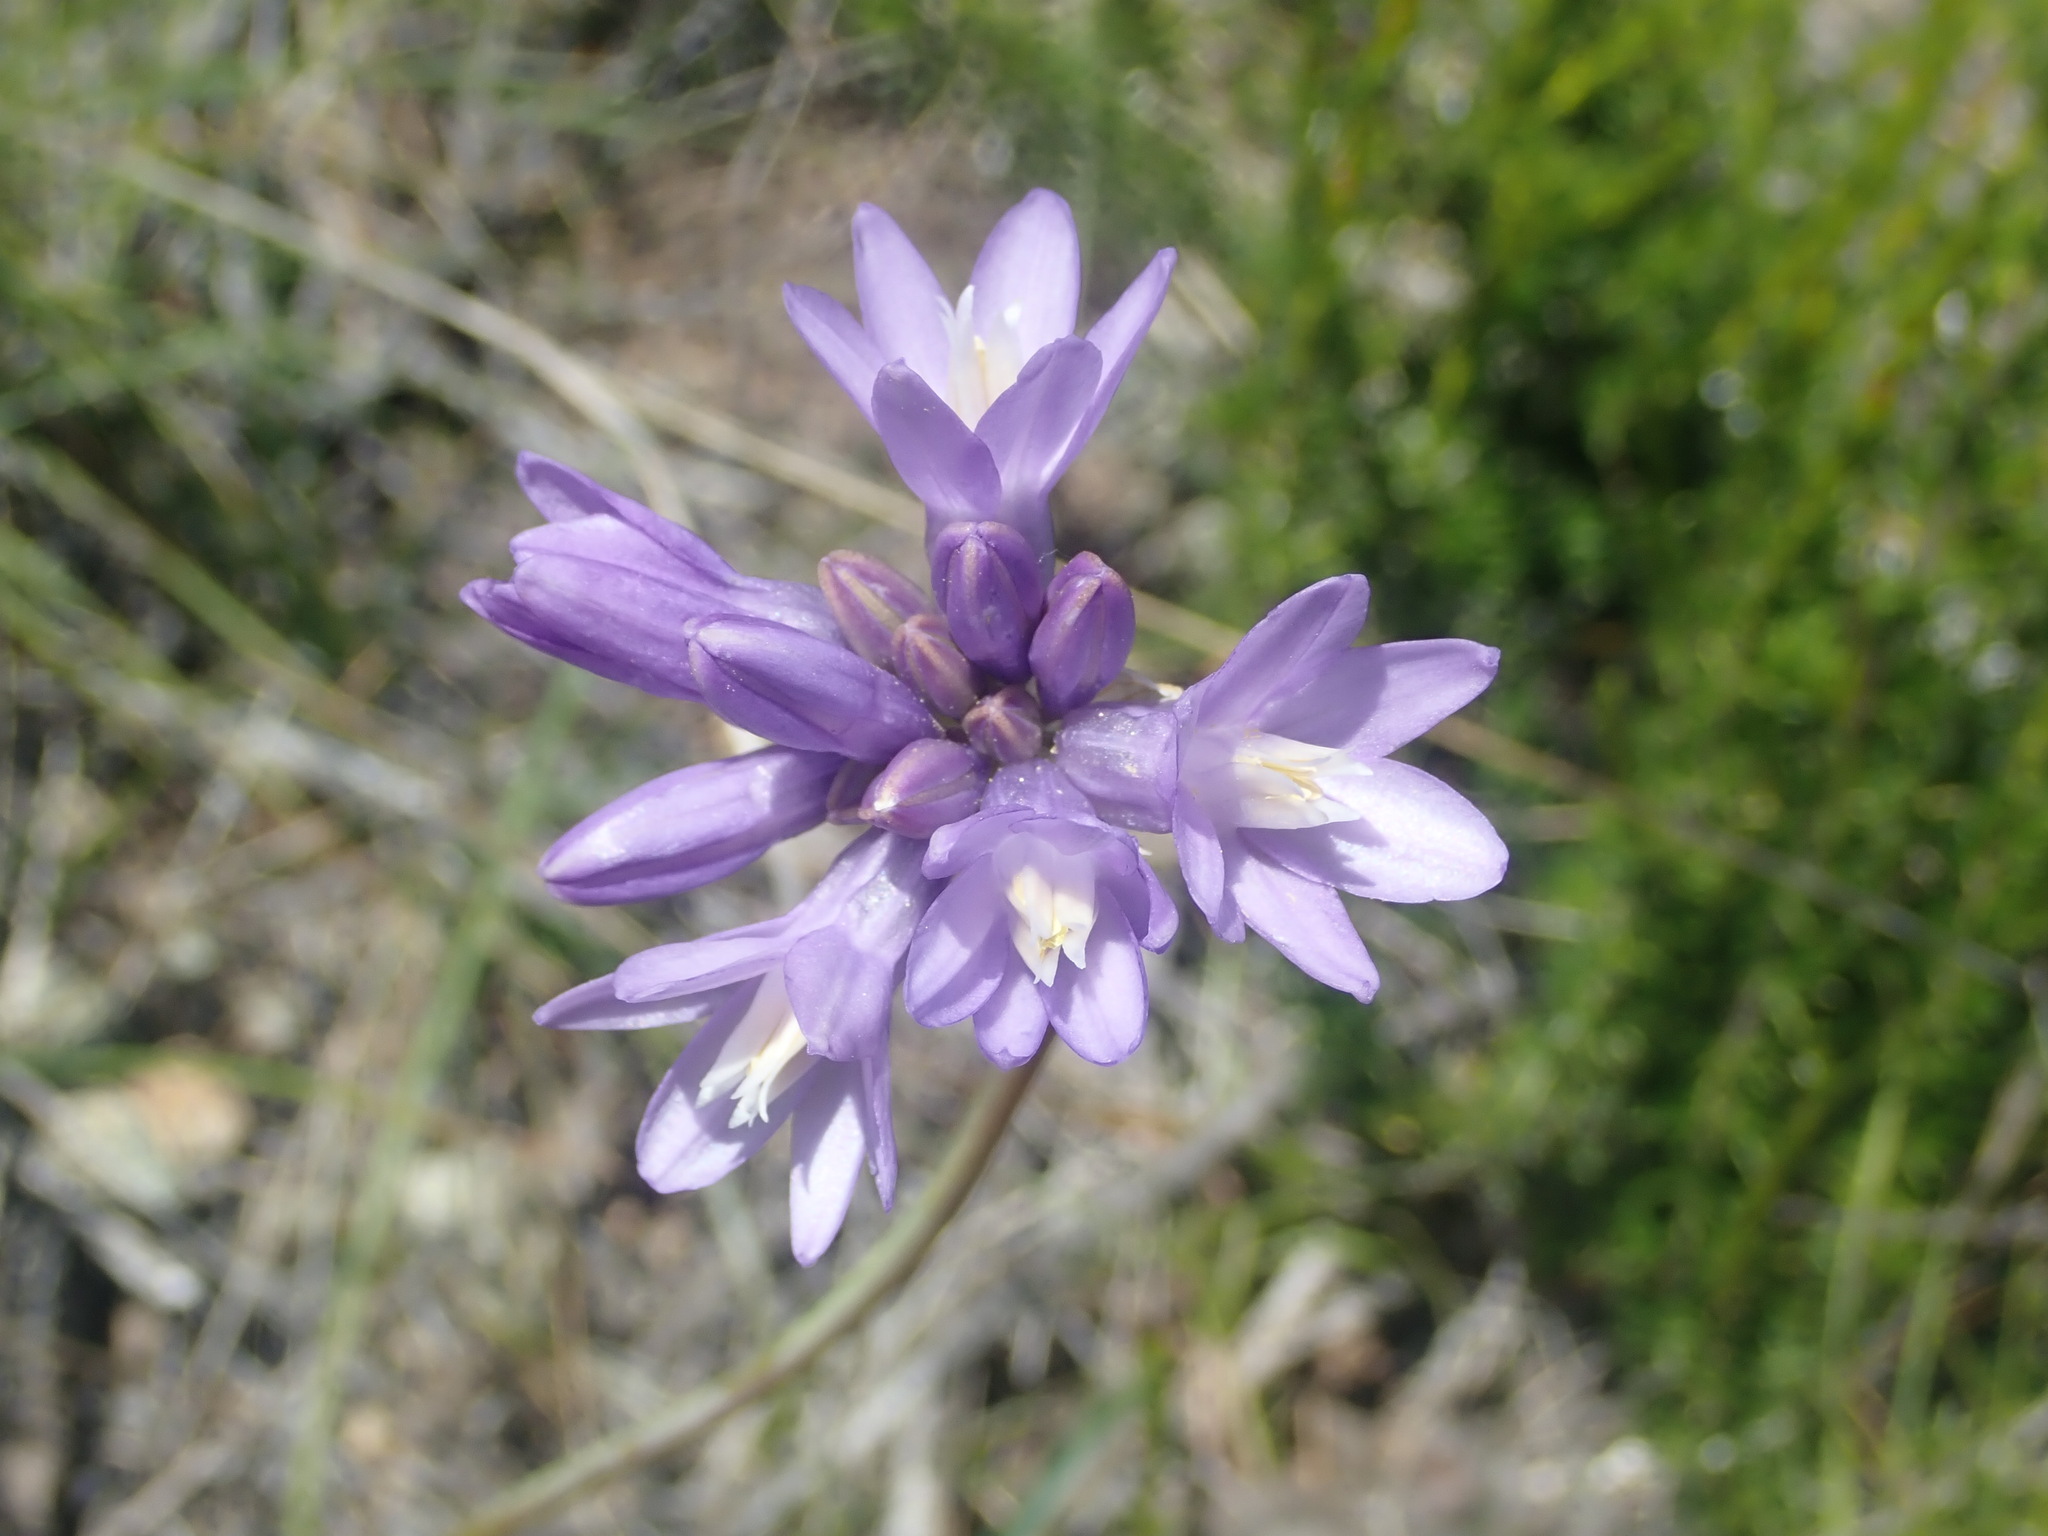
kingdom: Plantae
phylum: Tracheophyta
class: Liliopsida
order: Asparagales
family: Asparagaceae
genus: Dipterostemon
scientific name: Dipterostemon capitatus
